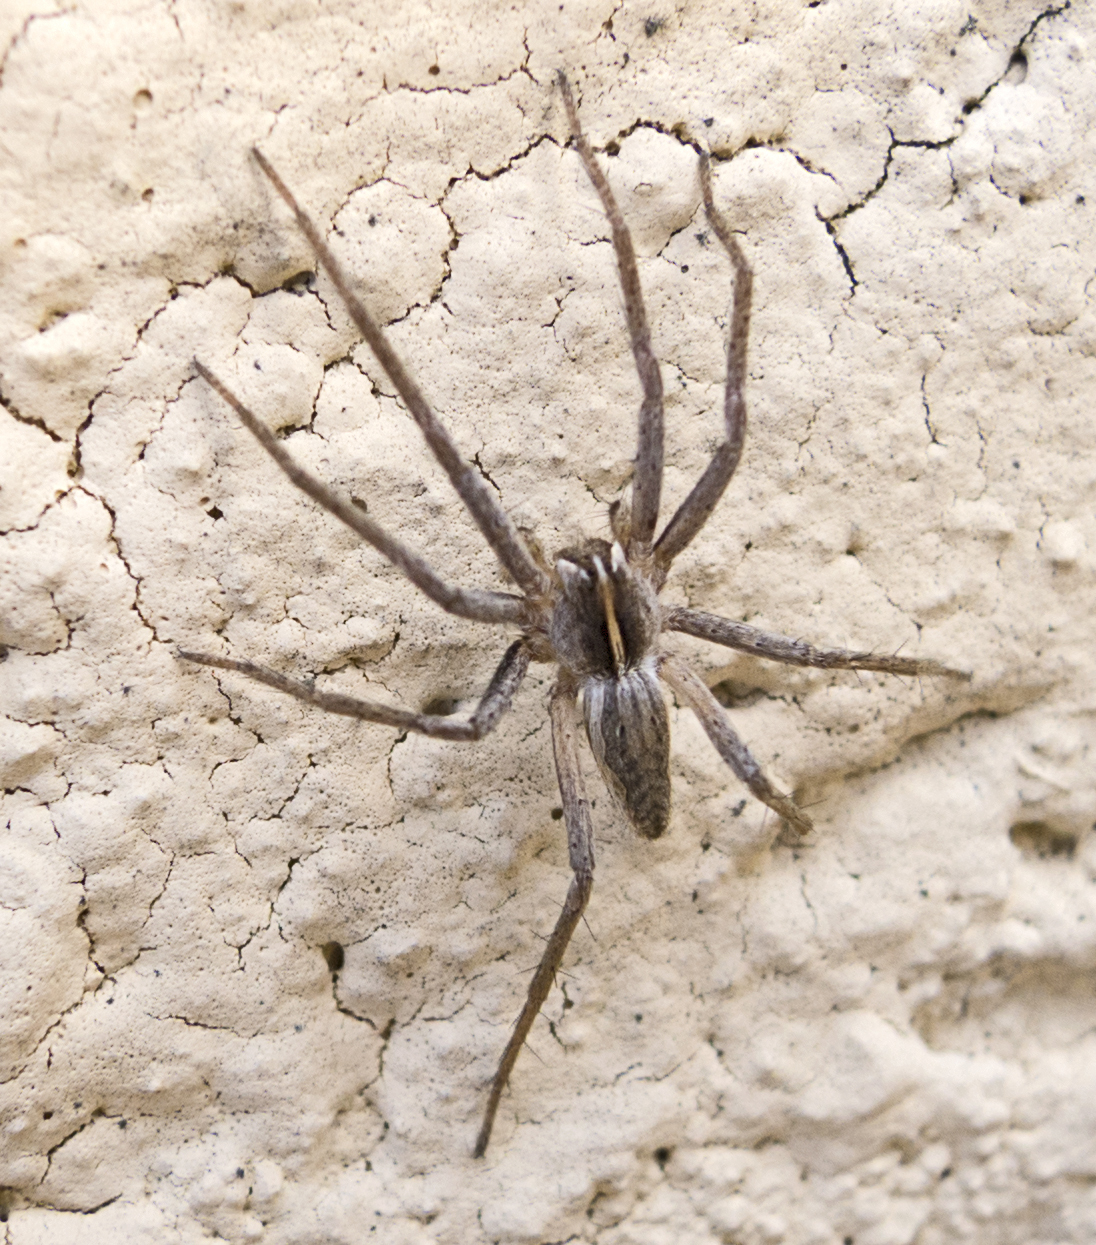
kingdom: Animalia
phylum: Arthropoda
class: Arachnida
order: Araneae
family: Pisauridae
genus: Pisaura
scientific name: Pisaura mirabilis
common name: Tent spider
